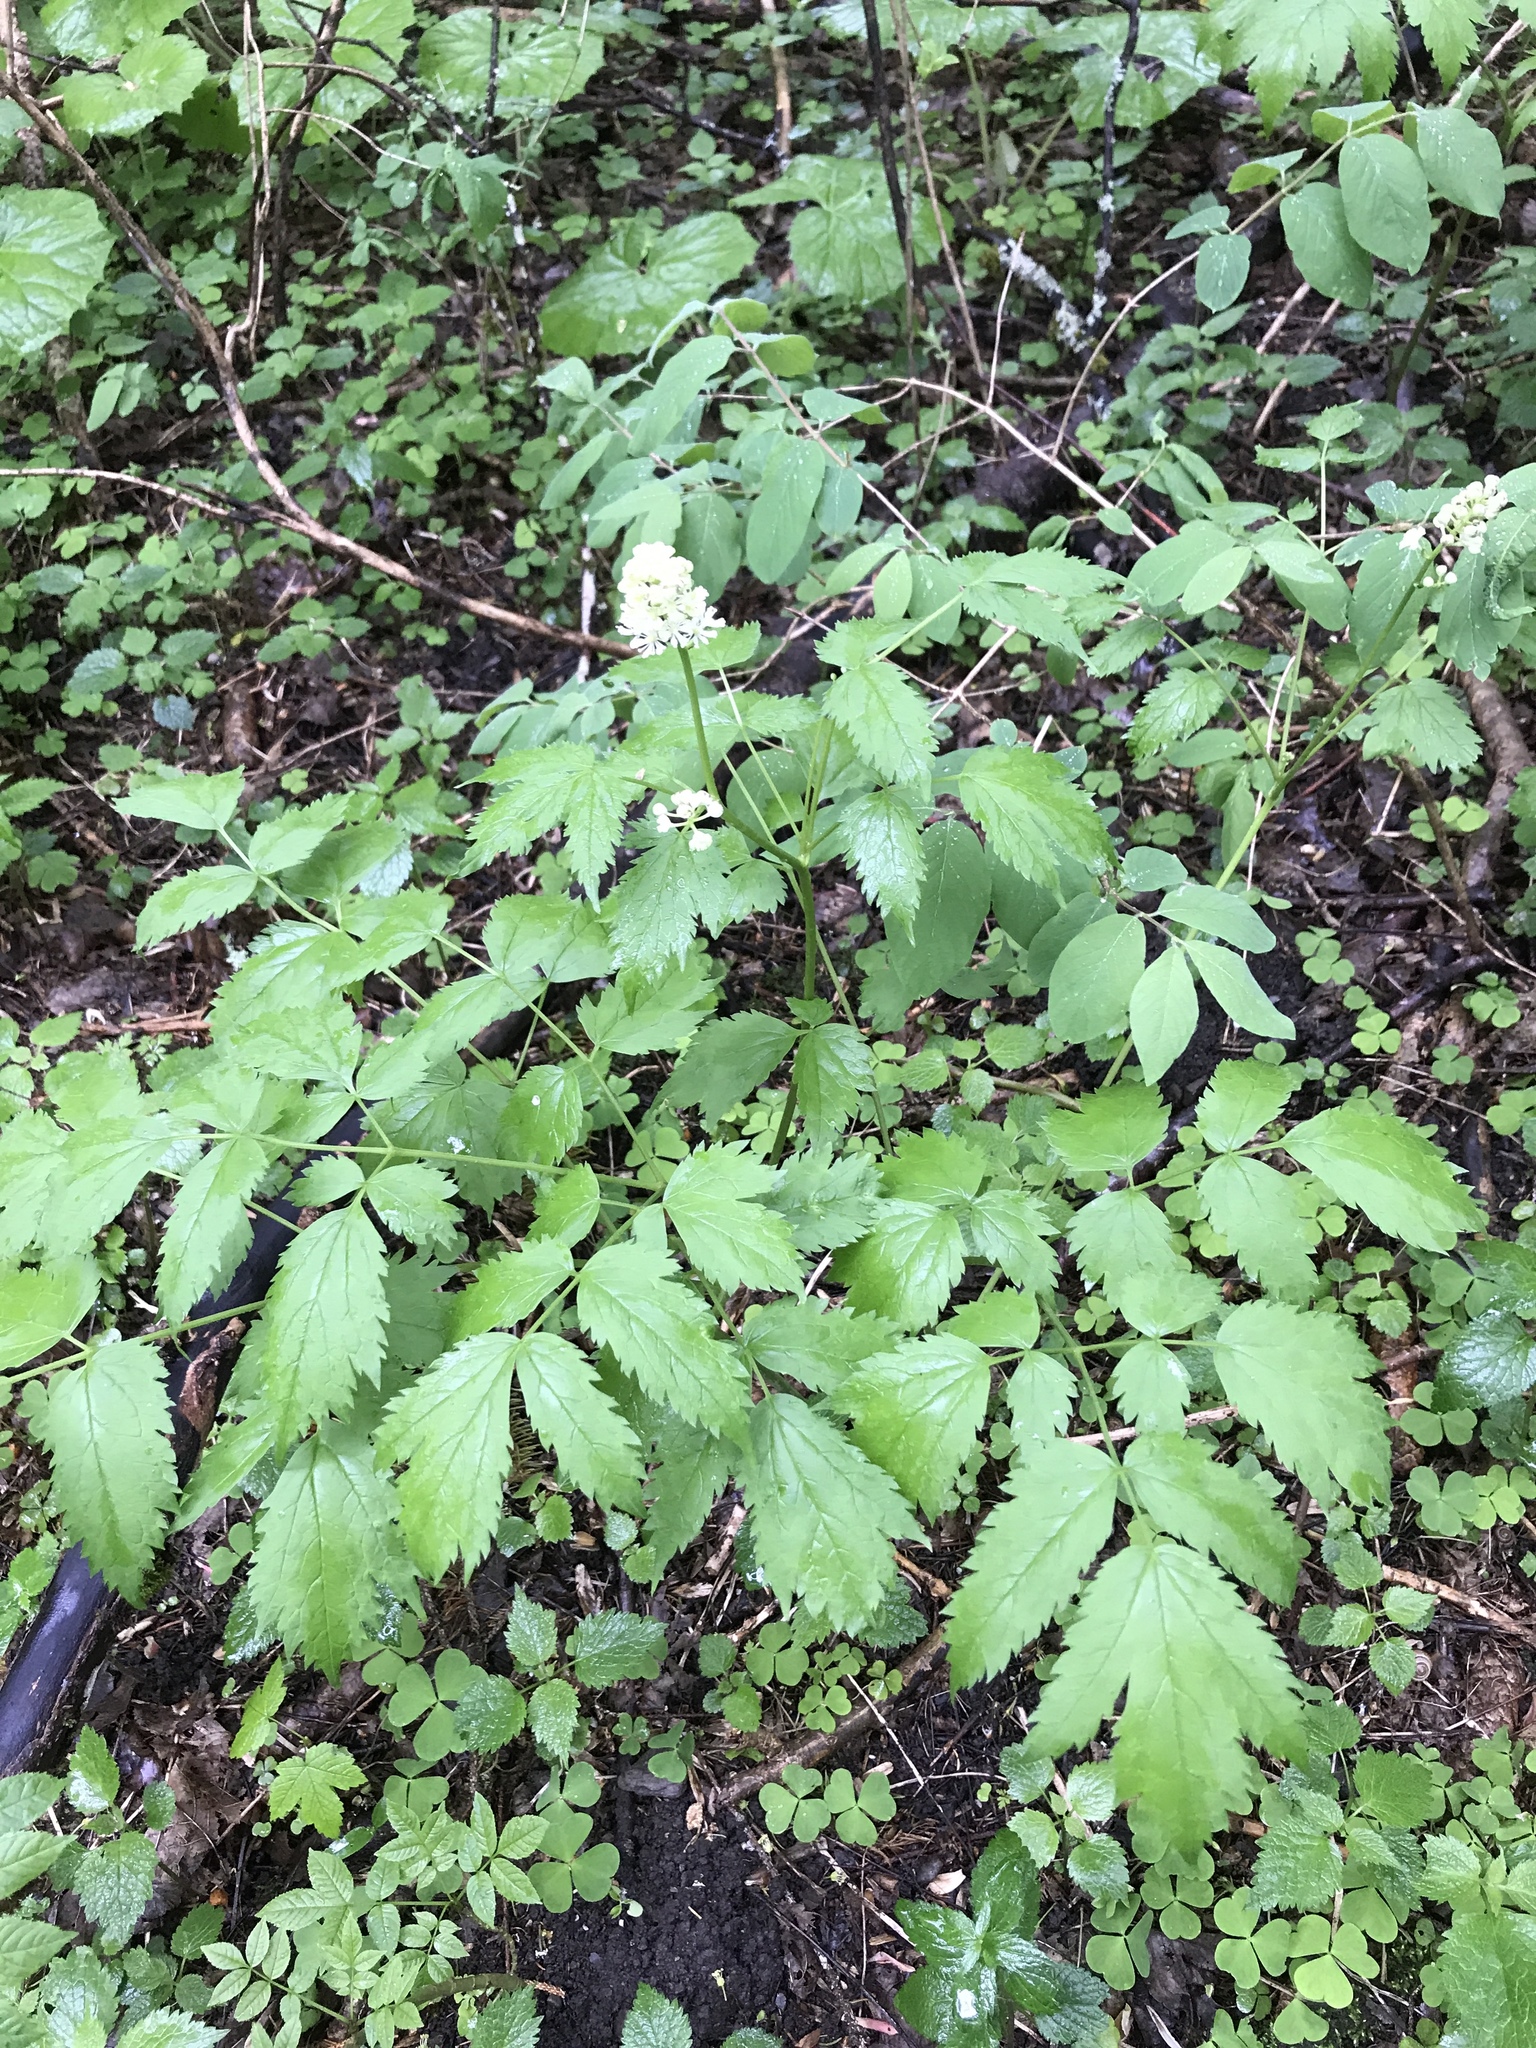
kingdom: Plantae
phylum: Tracheophyta
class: Magnoliopsida
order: Ranunculales
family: Ranunculaceae
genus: Actaea
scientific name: Actaea spicata
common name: Baneberry
